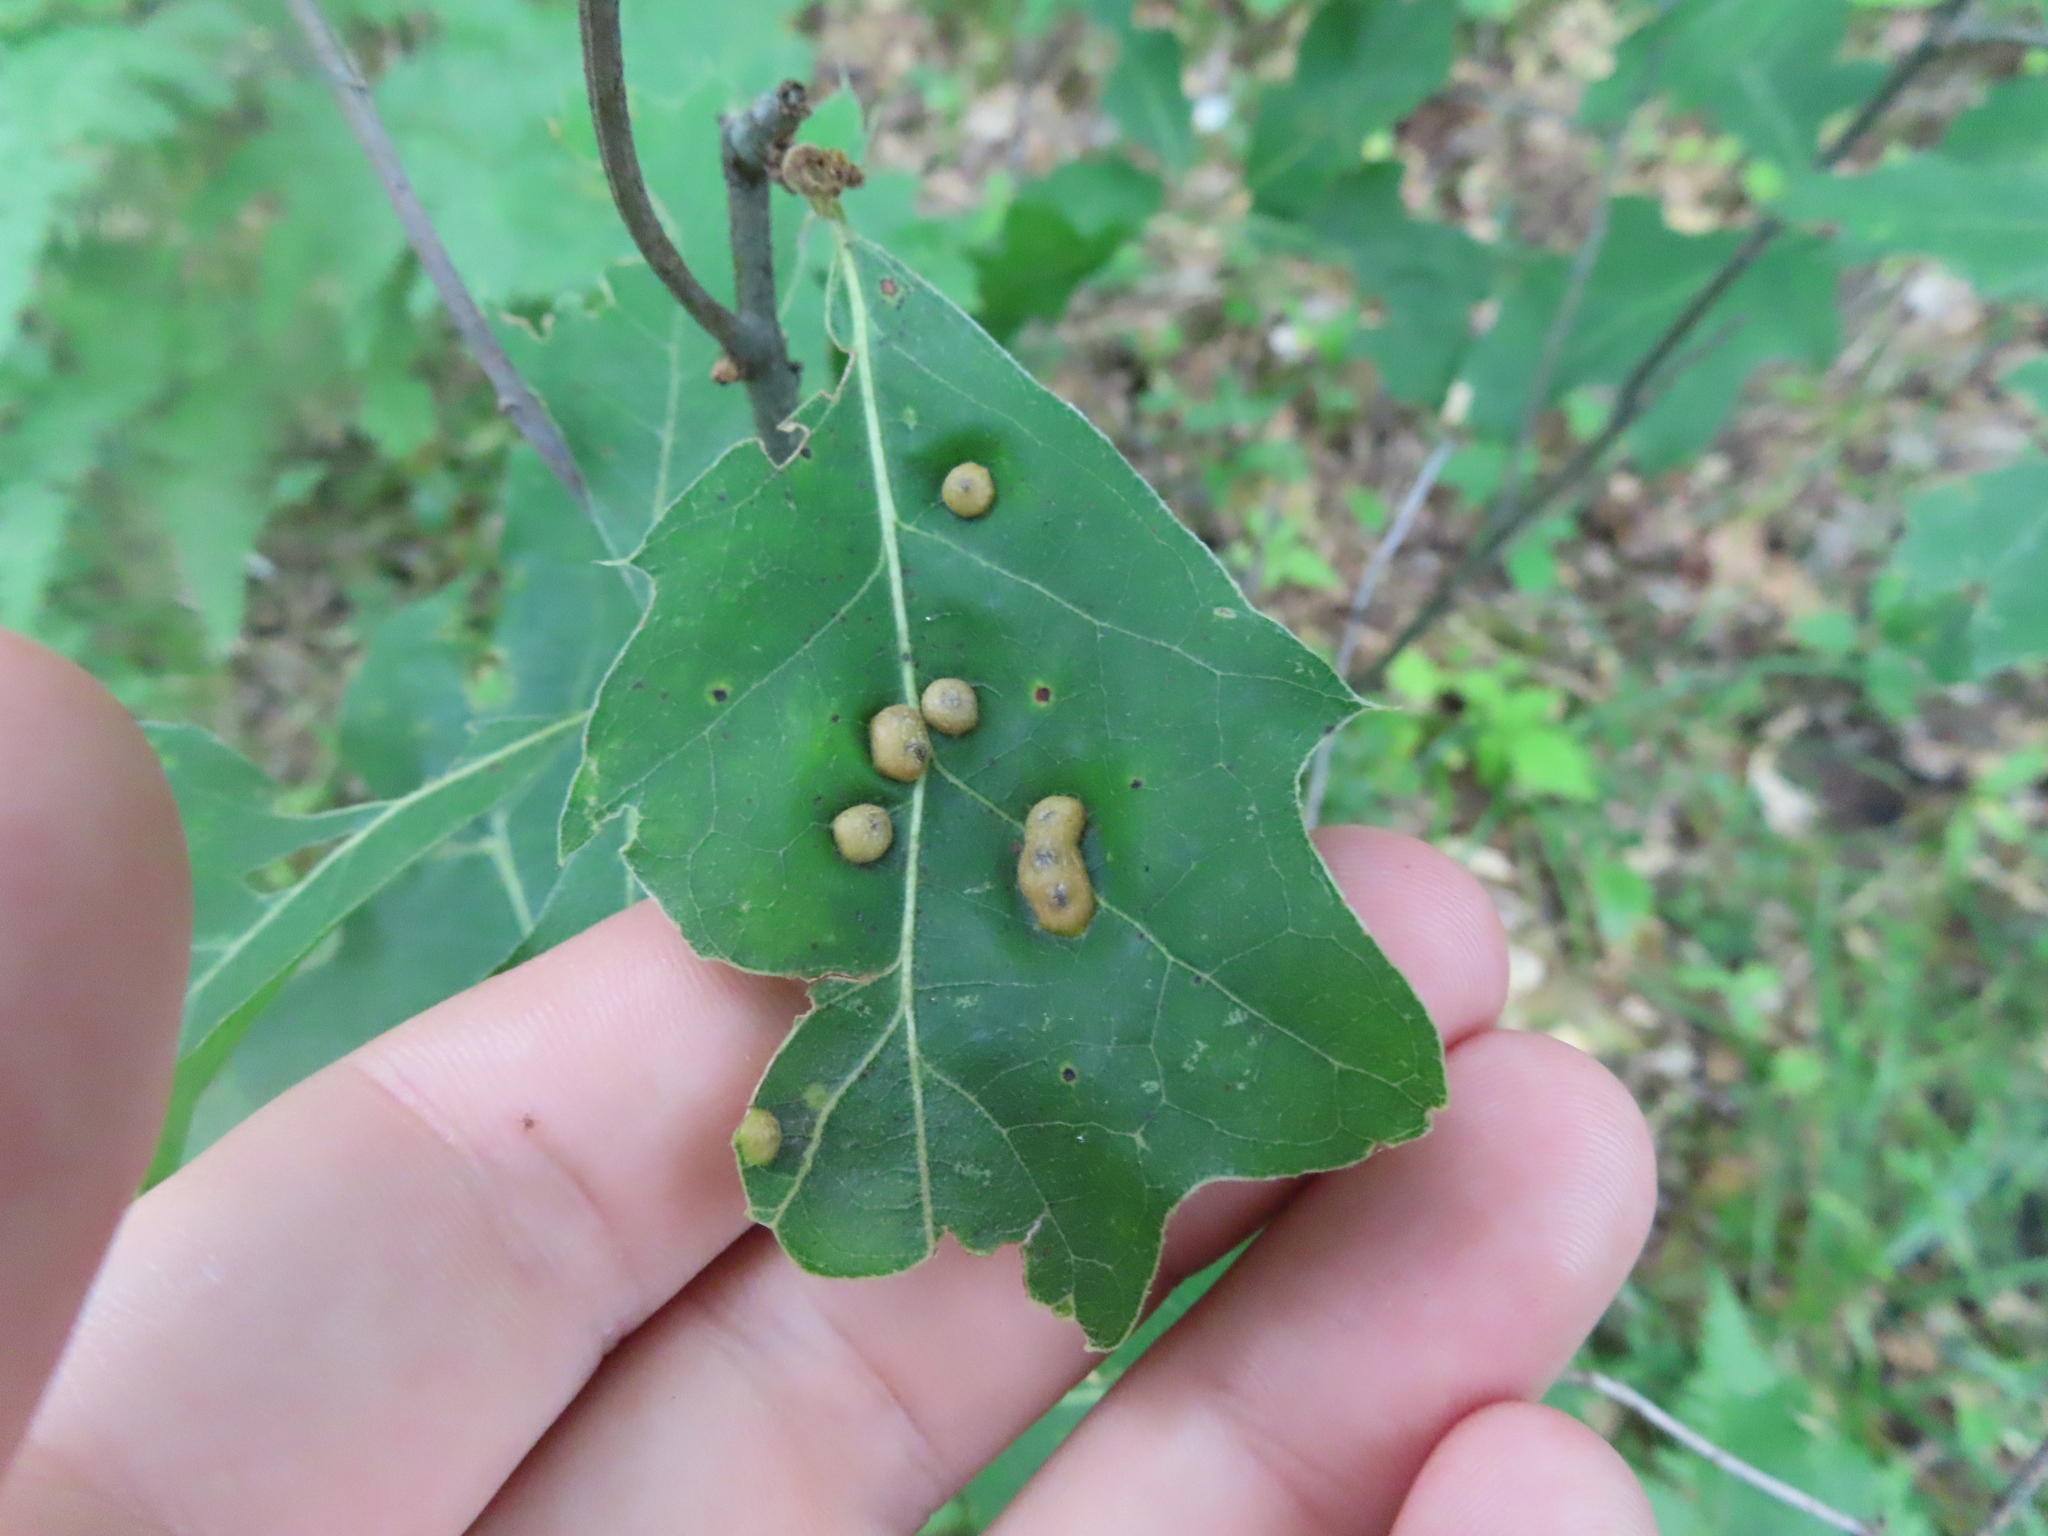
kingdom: Animalia
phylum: Arthropoda
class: Insecta
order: Diptera
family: Cecidomyiidae
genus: Polystepha
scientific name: Polystepha pilulae
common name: Oak leaf gall midge
